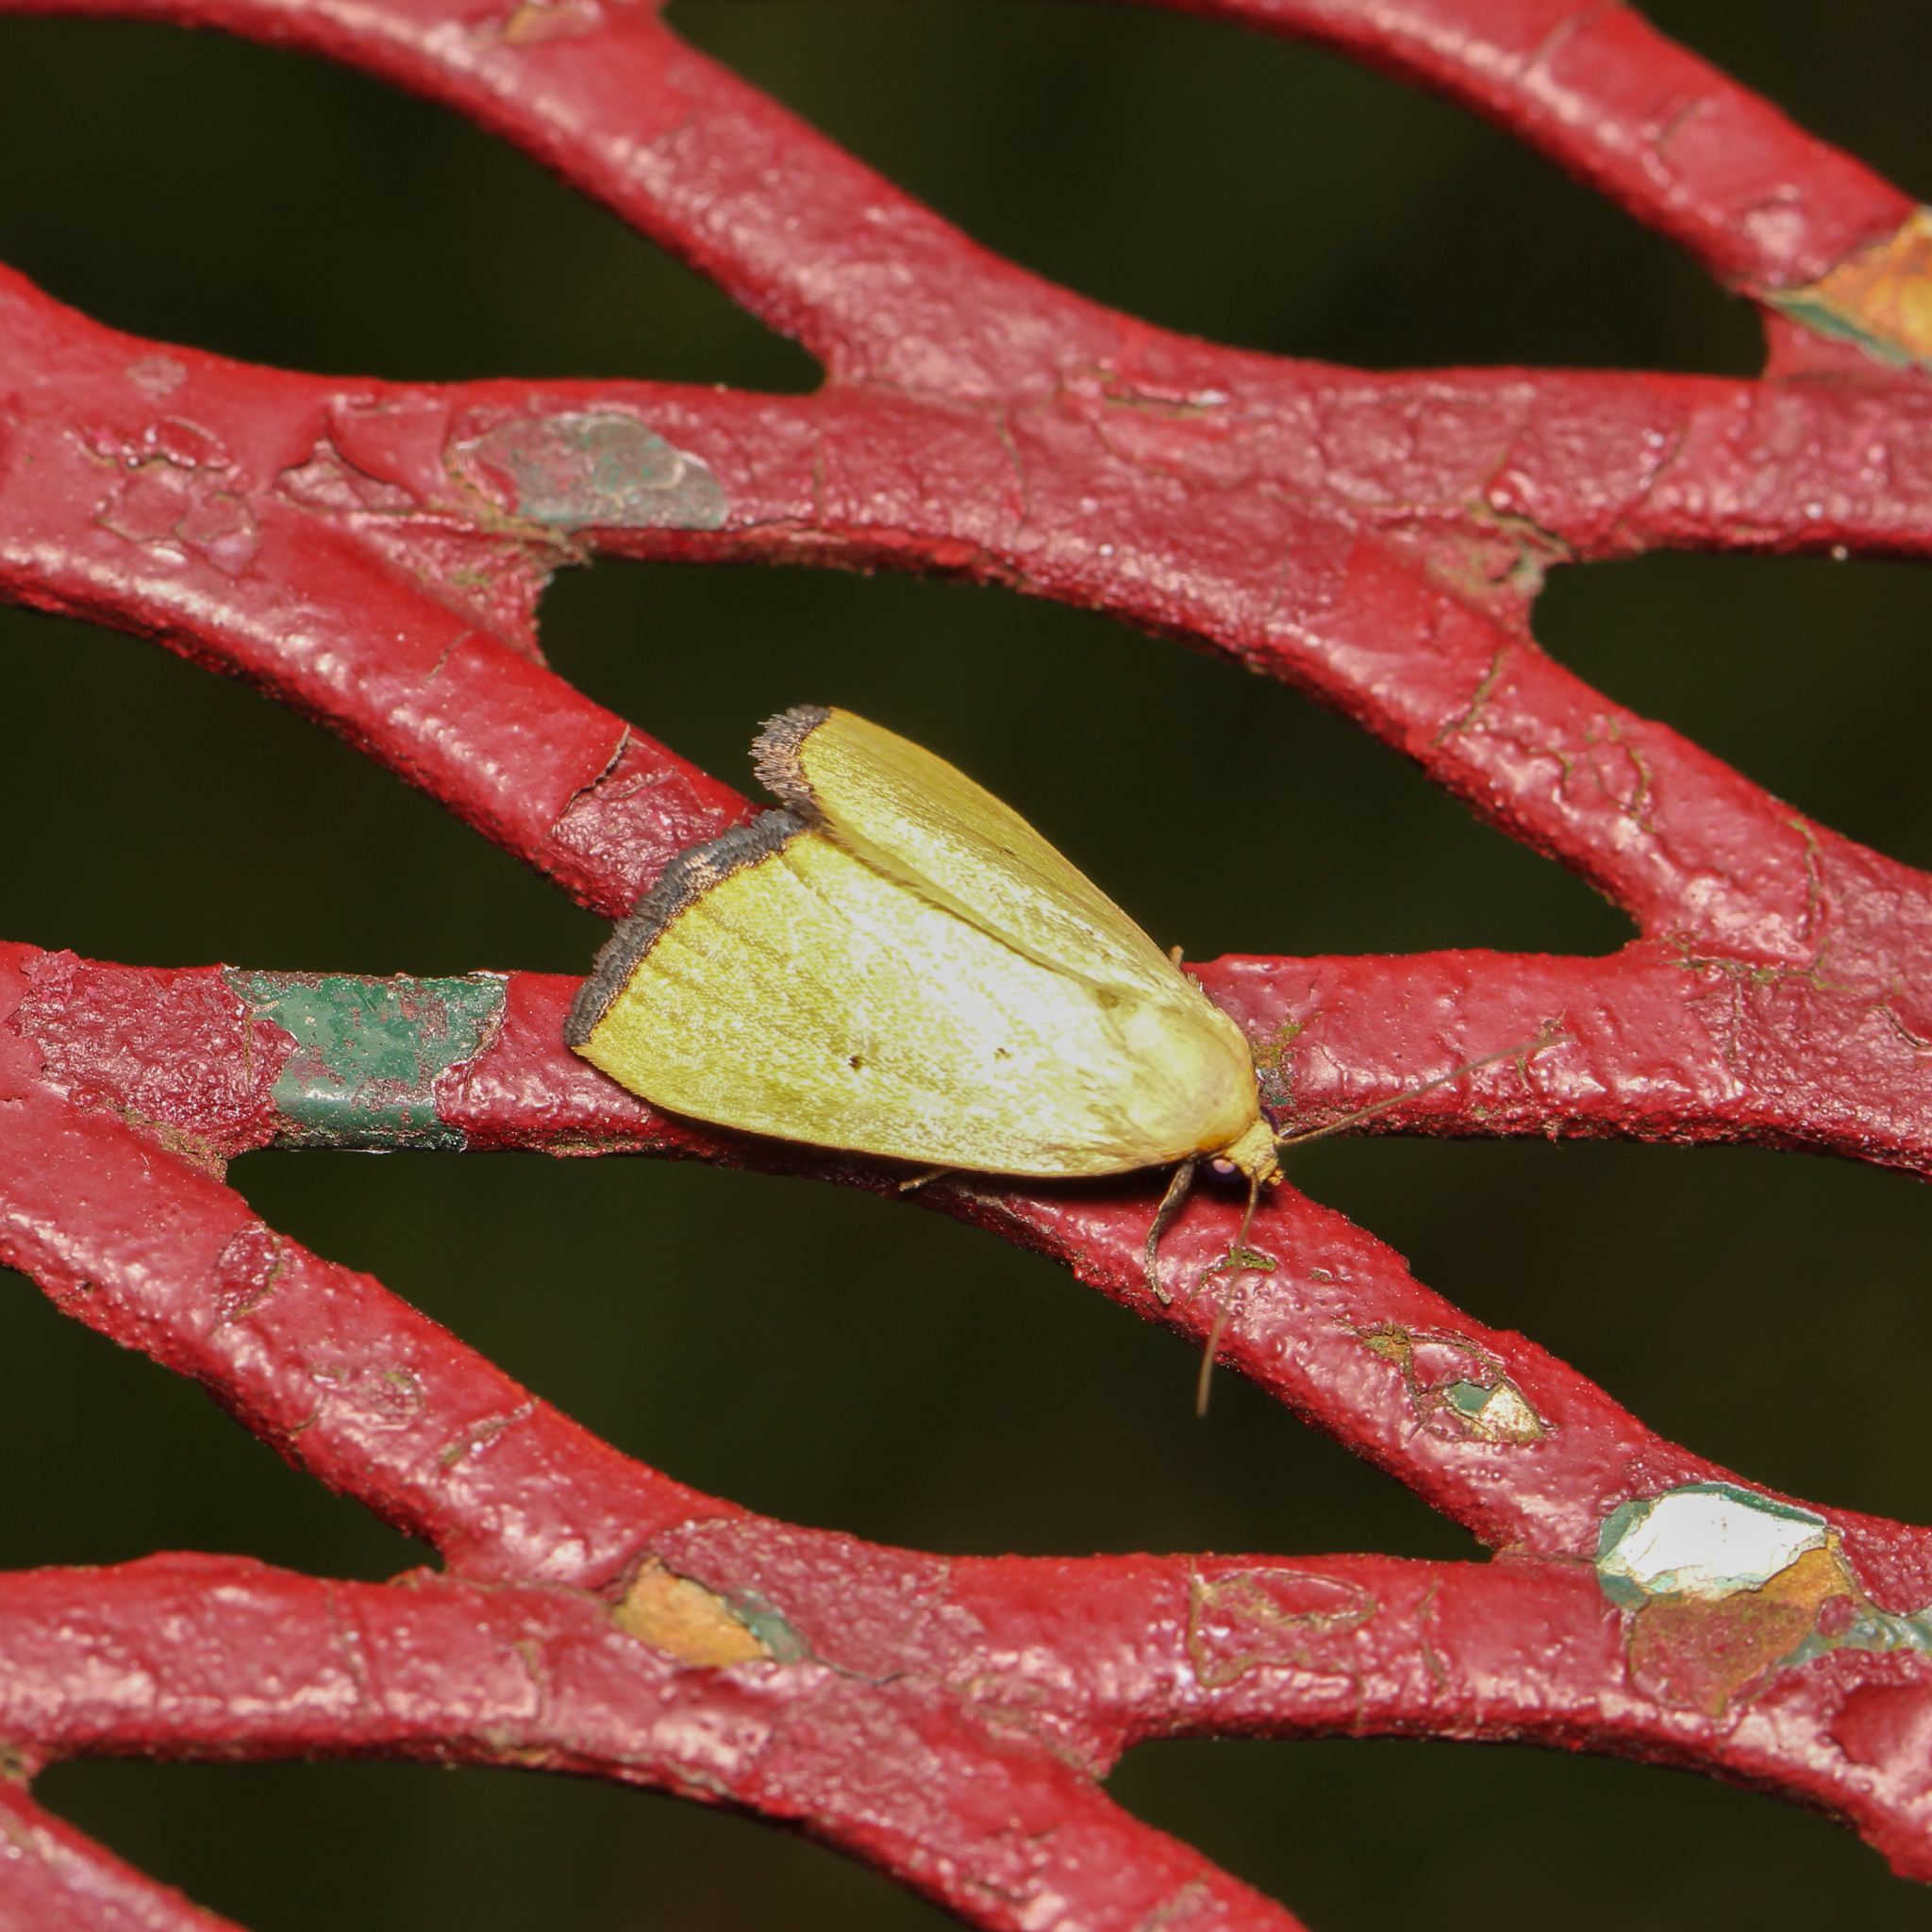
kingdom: Animalia
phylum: Arthropoda
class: Insecta
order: Lepidoptera
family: Noctuidae
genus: Marimatha
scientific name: Marimatha nigrofimbria
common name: Black-bordered lemon moth
